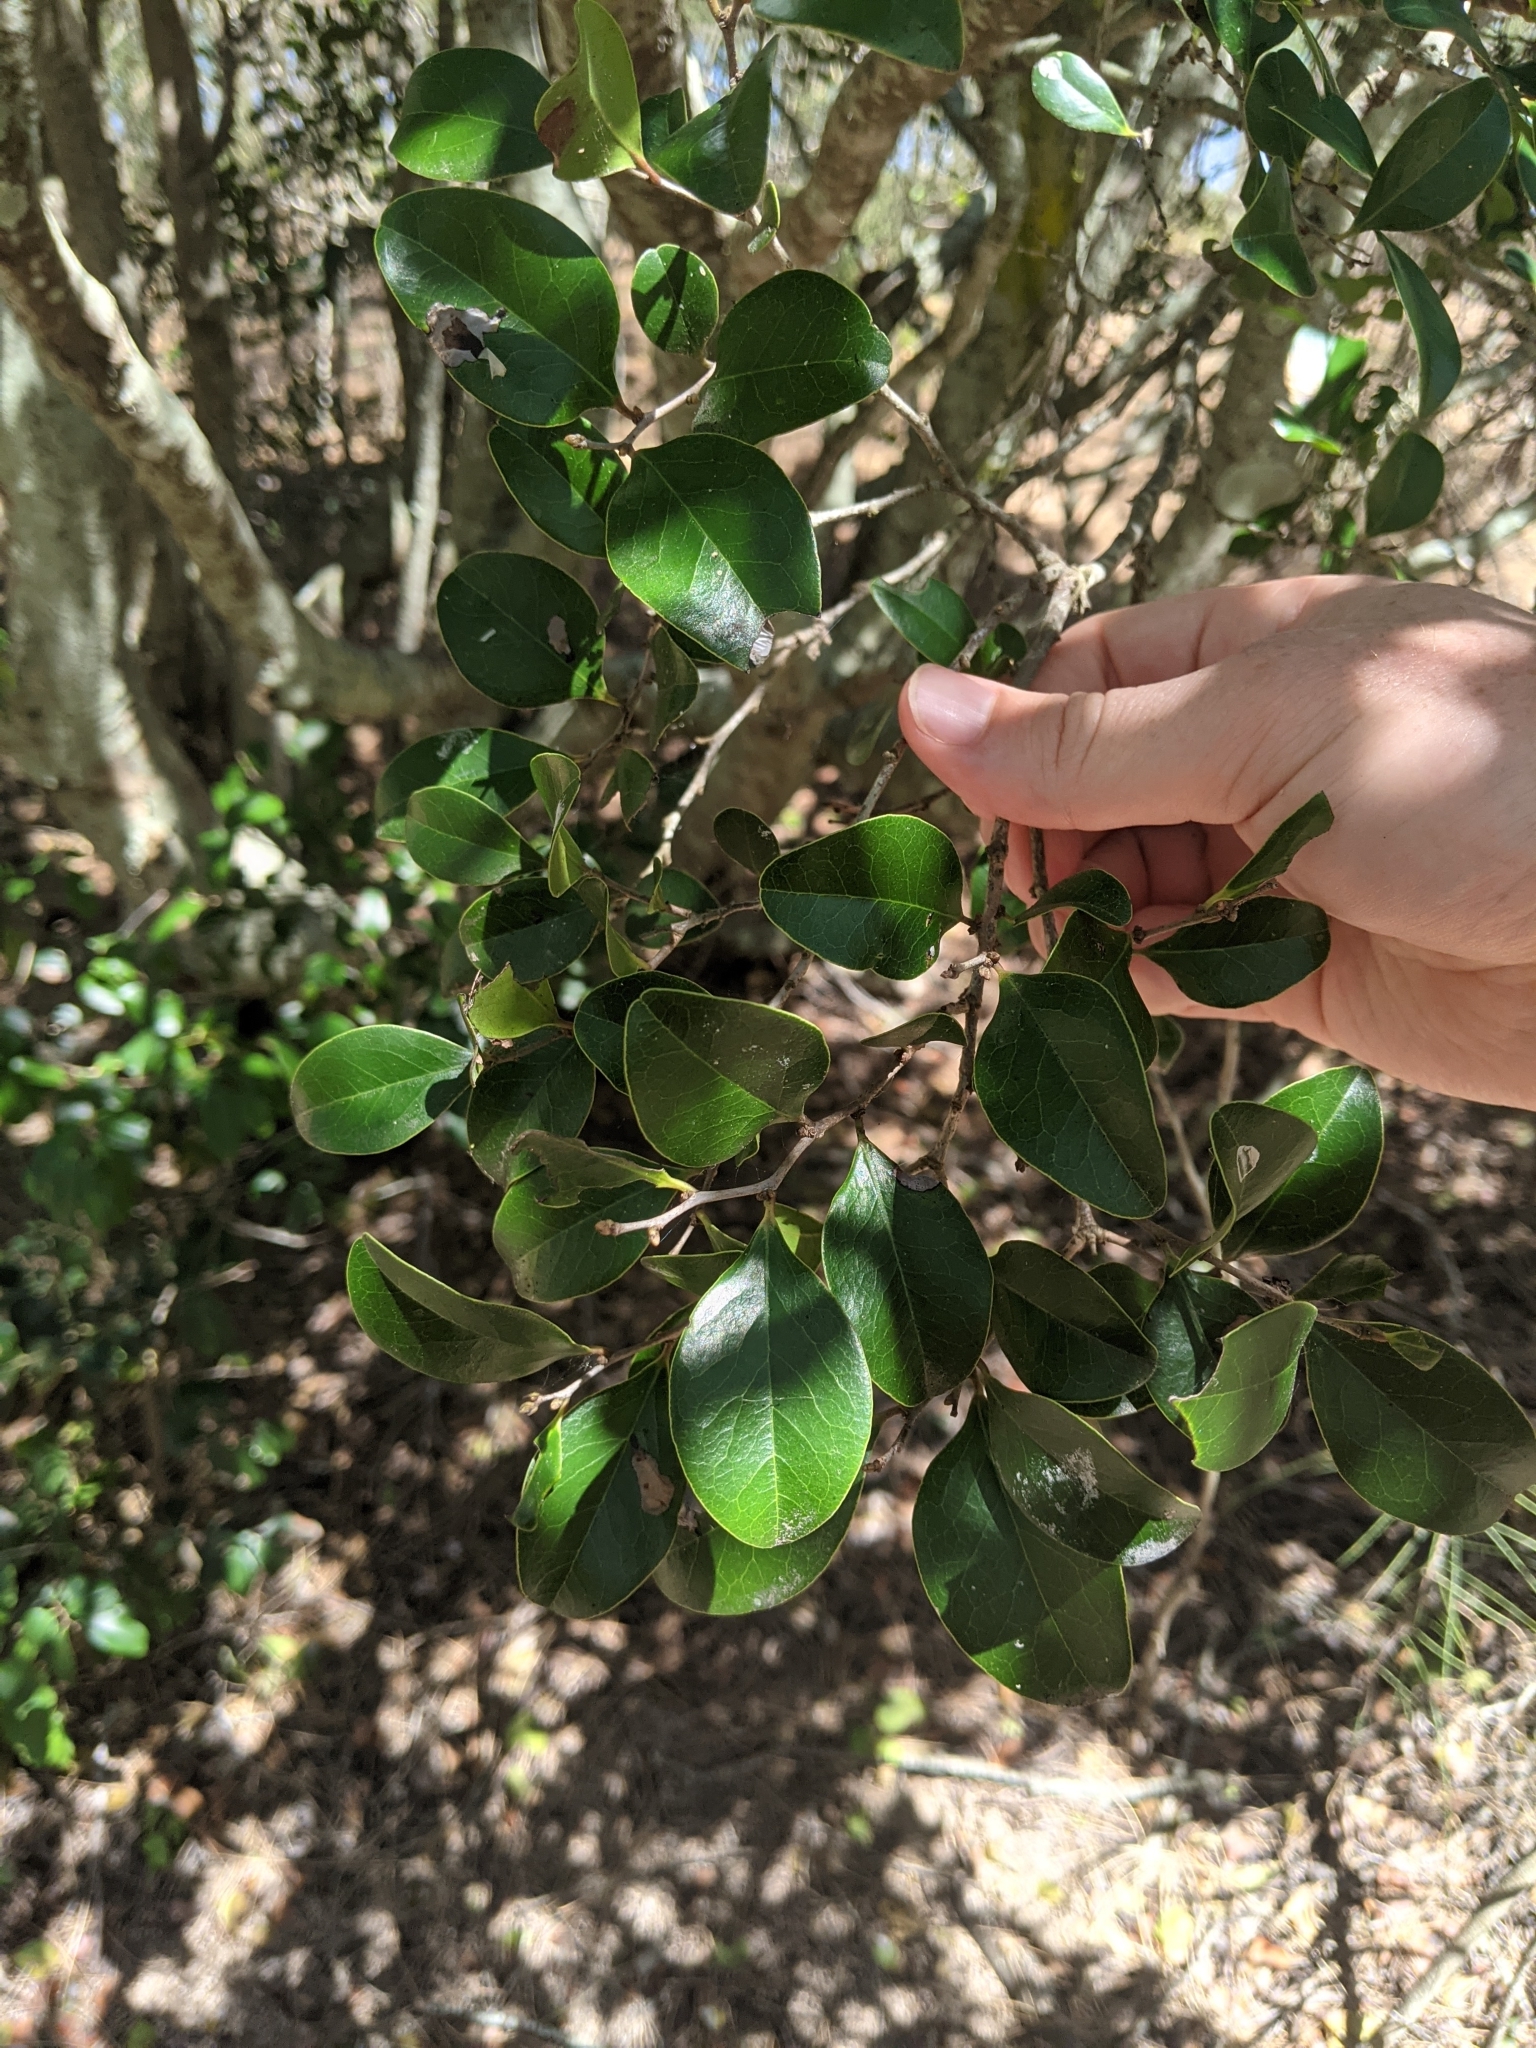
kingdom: Plantae
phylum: Tracheophyta
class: Magnoliopsida
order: Ericales
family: Ebenaceae
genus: Diospyros
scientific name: Diospyros geminata
